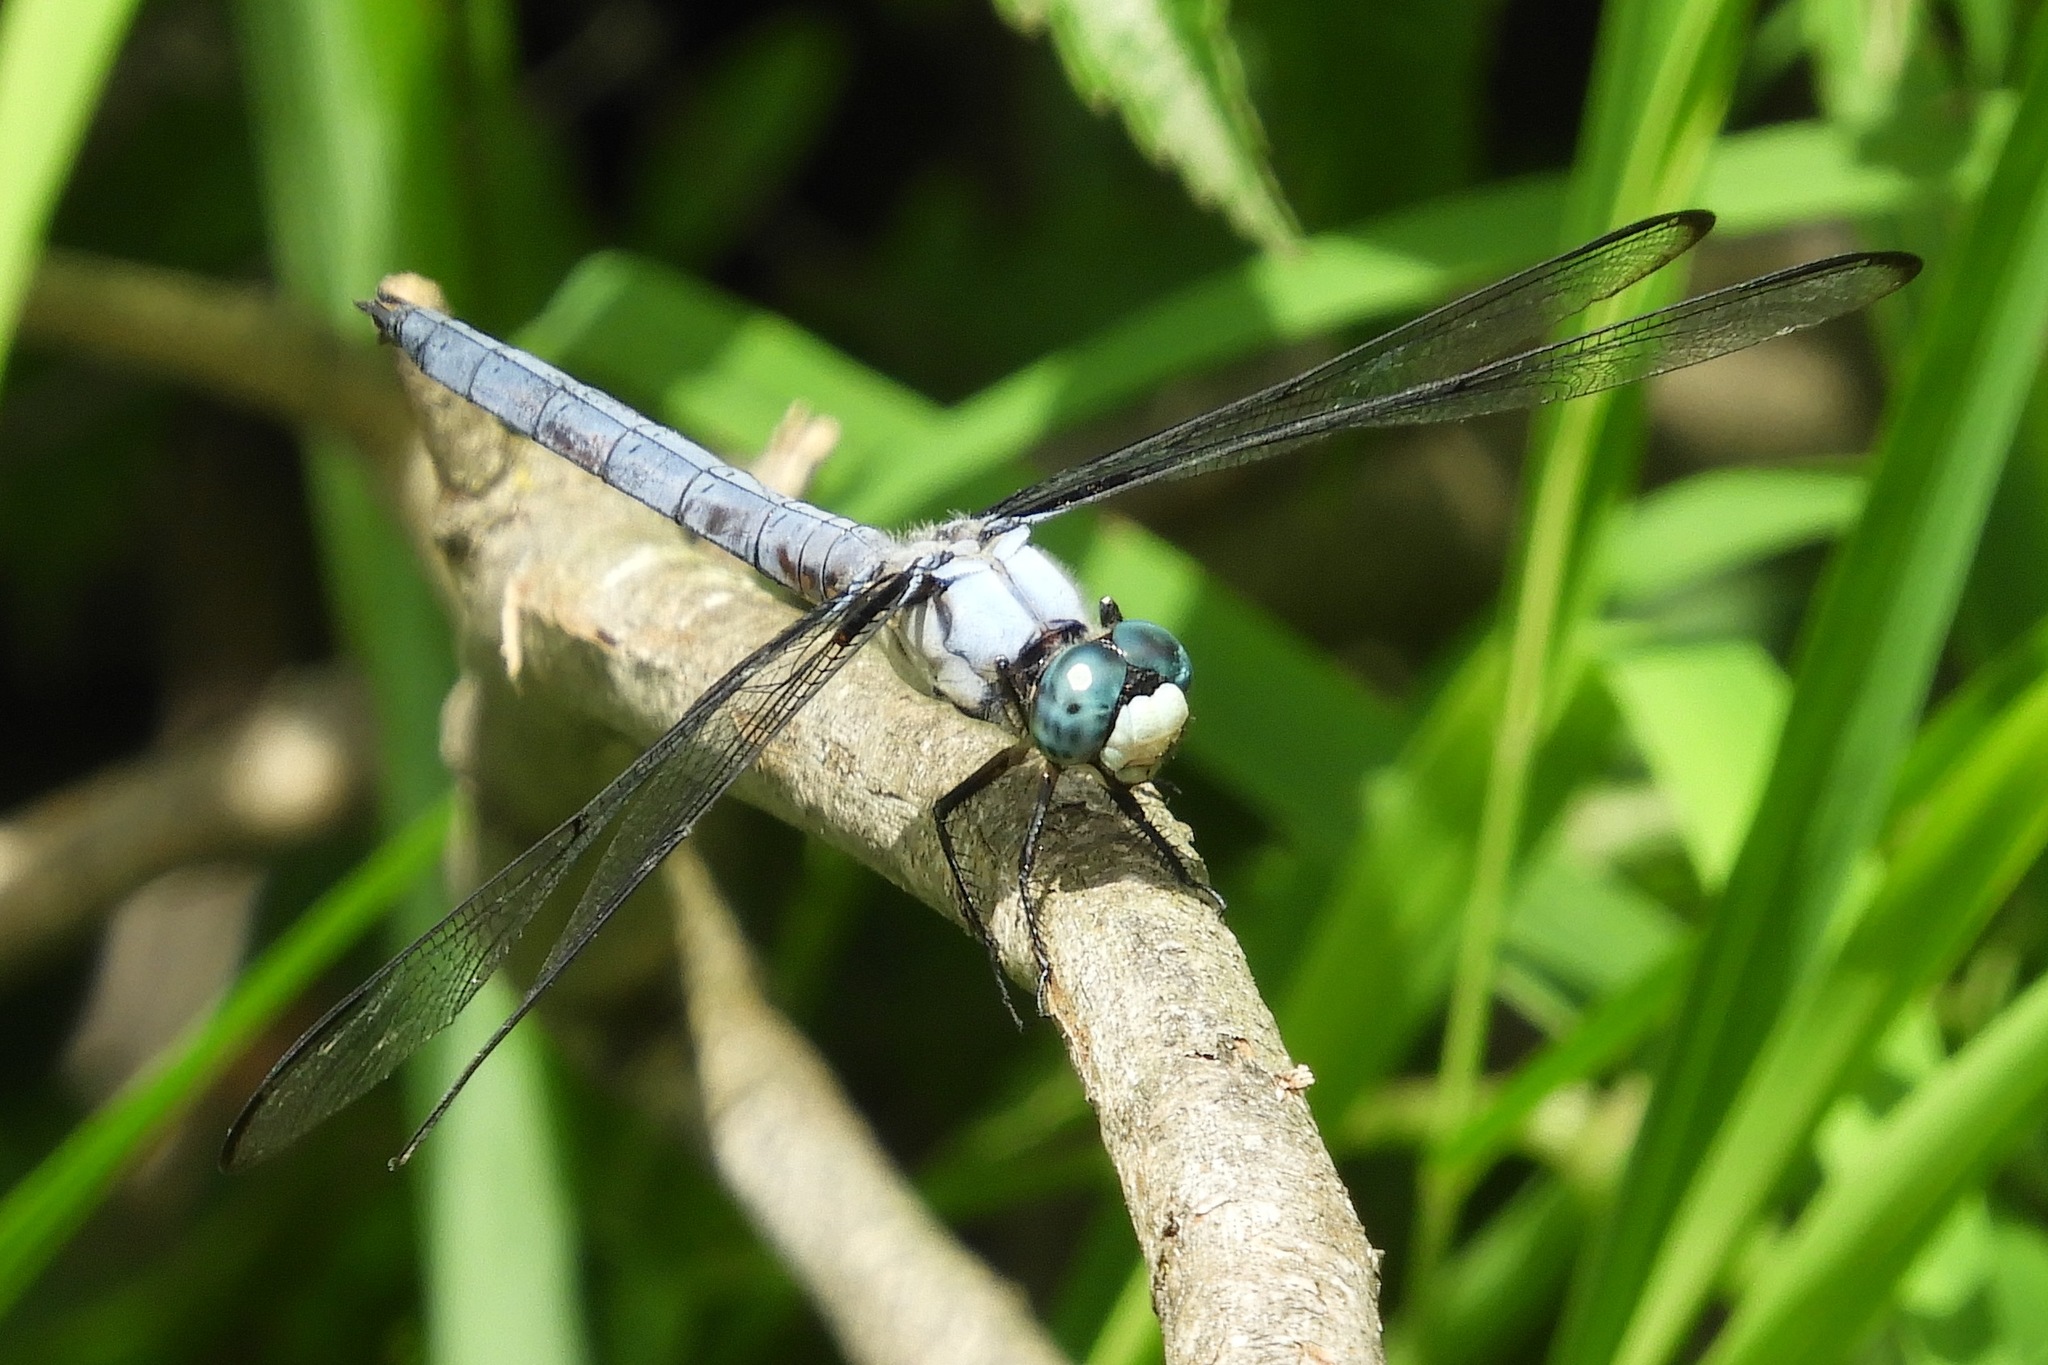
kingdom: Animalia
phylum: Arthropoda
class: Insecta
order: Odonata
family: Libellulidae
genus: Libellula
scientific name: Libellula vibrans
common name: Great blue skimmer
